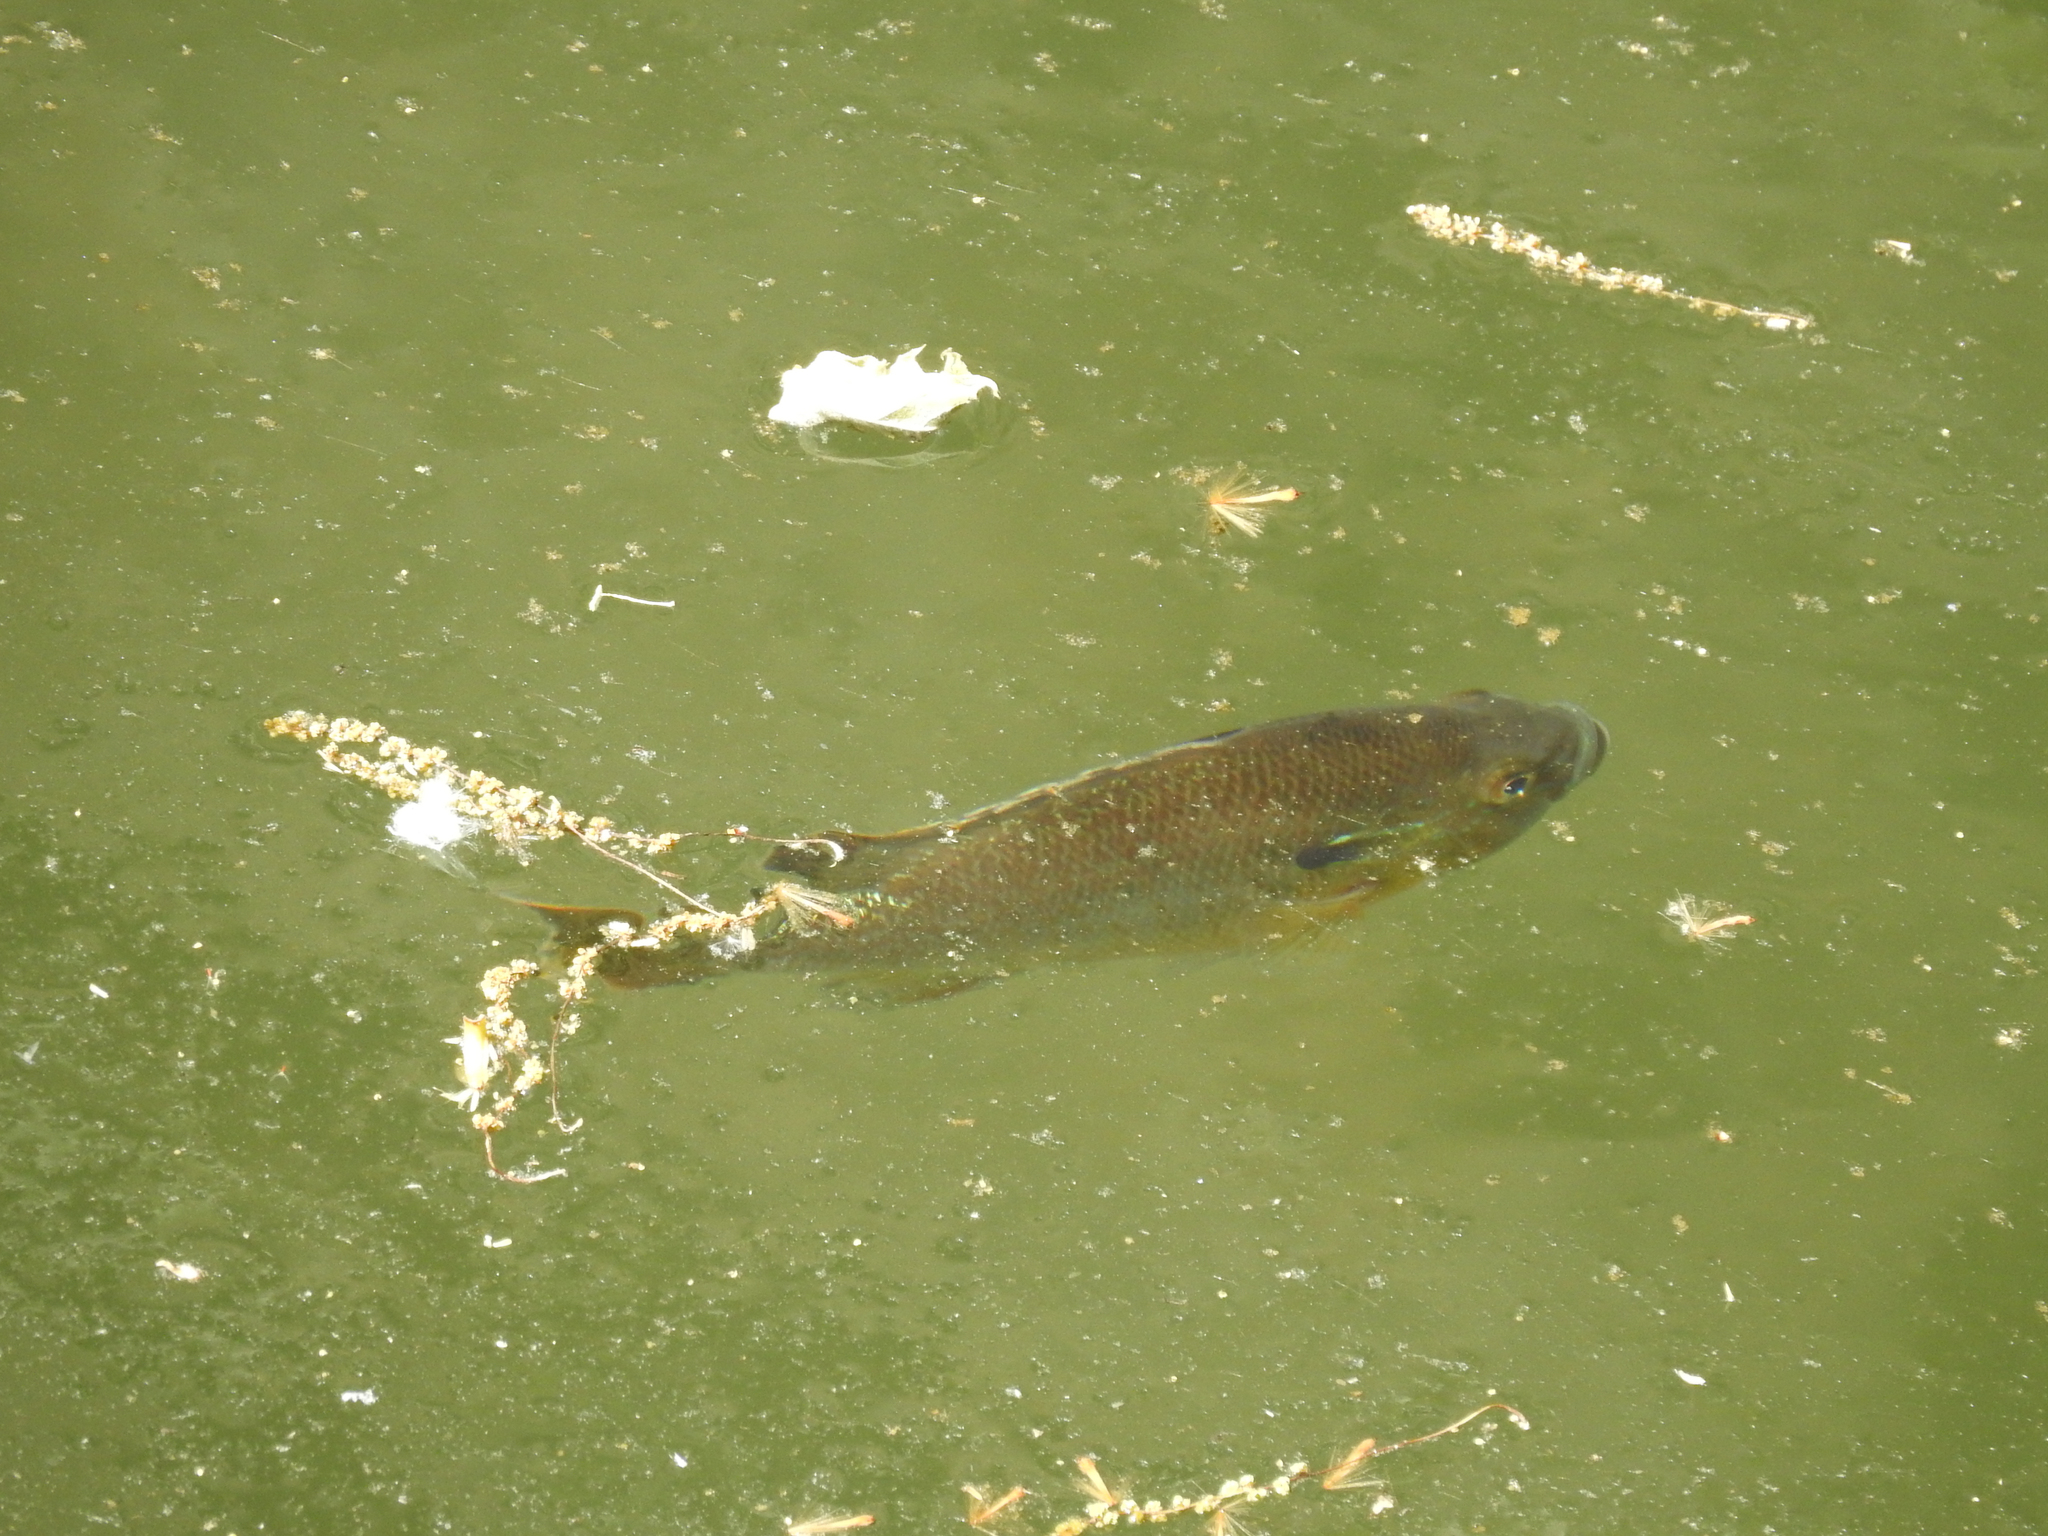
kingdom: Animalia
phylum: Chordata
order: Perciformes
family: Centrarchidae
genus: Lepomis
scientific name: Lepomis auritus
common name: Redbreast sunfish
